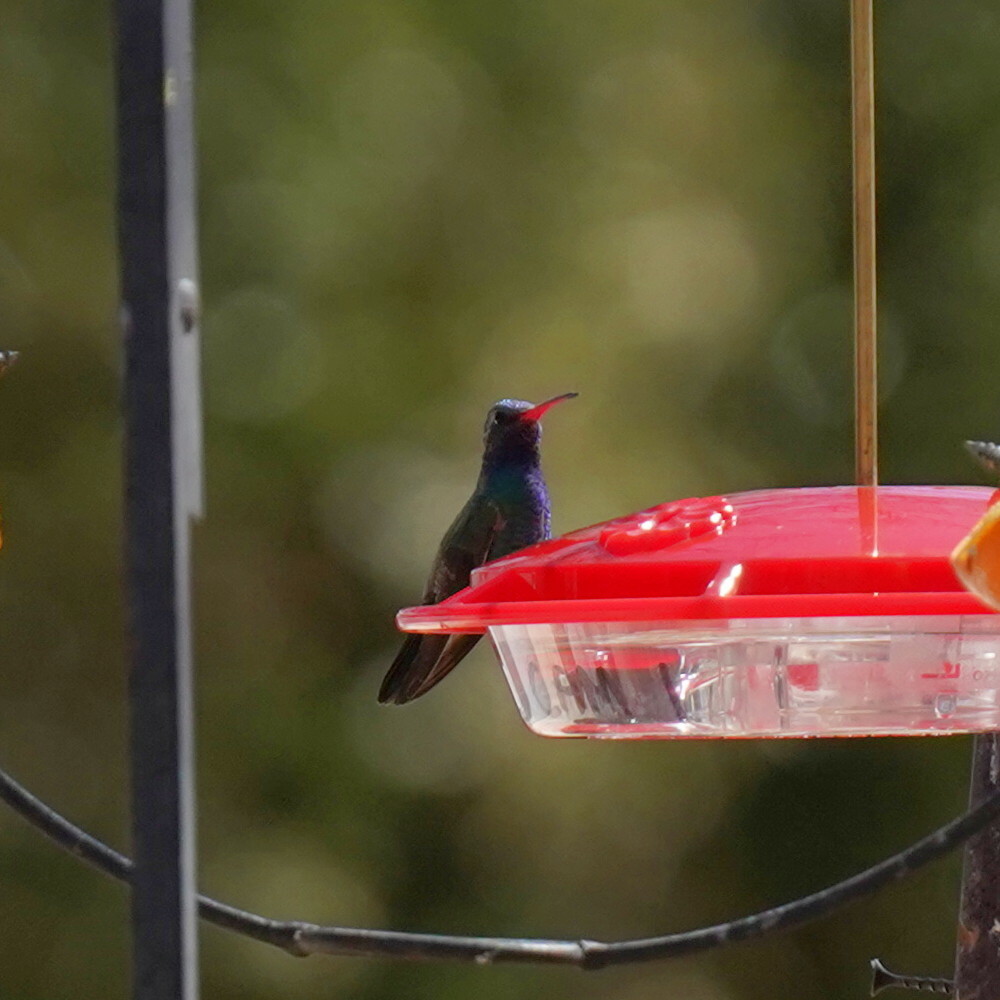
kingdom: Animalia
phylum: Chordata
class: Aves
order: Apodiformes
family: Trochilidae
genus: Cynanthus
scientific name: Cynanthus latirostris
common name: Broad-billed hummingbird
